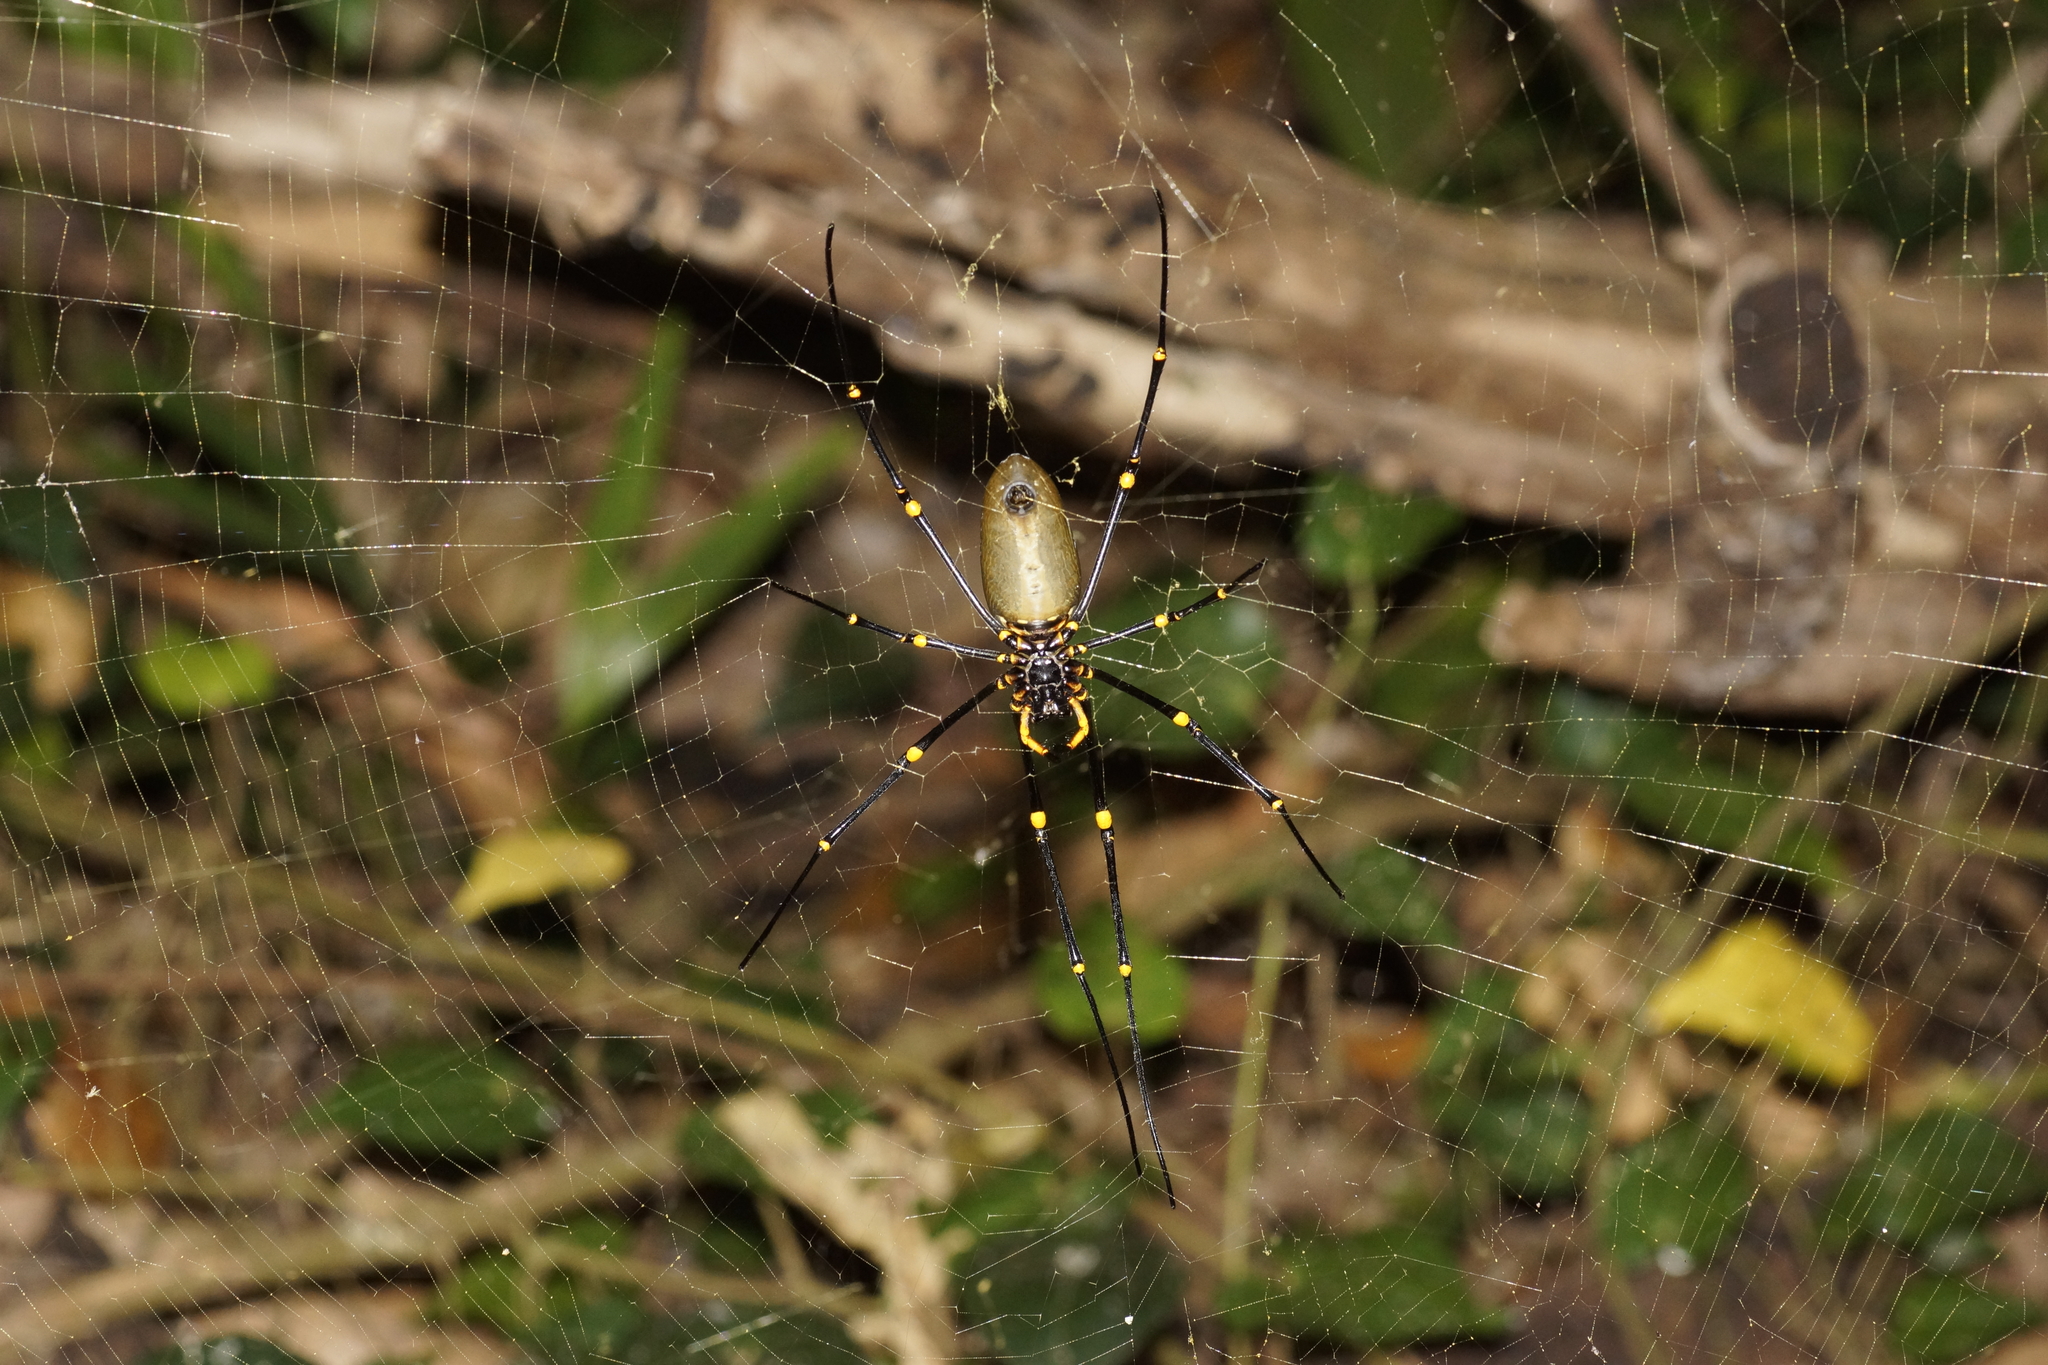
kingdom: Animalia
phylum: Arthropoda
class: Arachnida
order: Araneae
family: Araneidae
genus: Nephila
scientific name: Nephila pilipes
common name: Giant golden orb weaver
